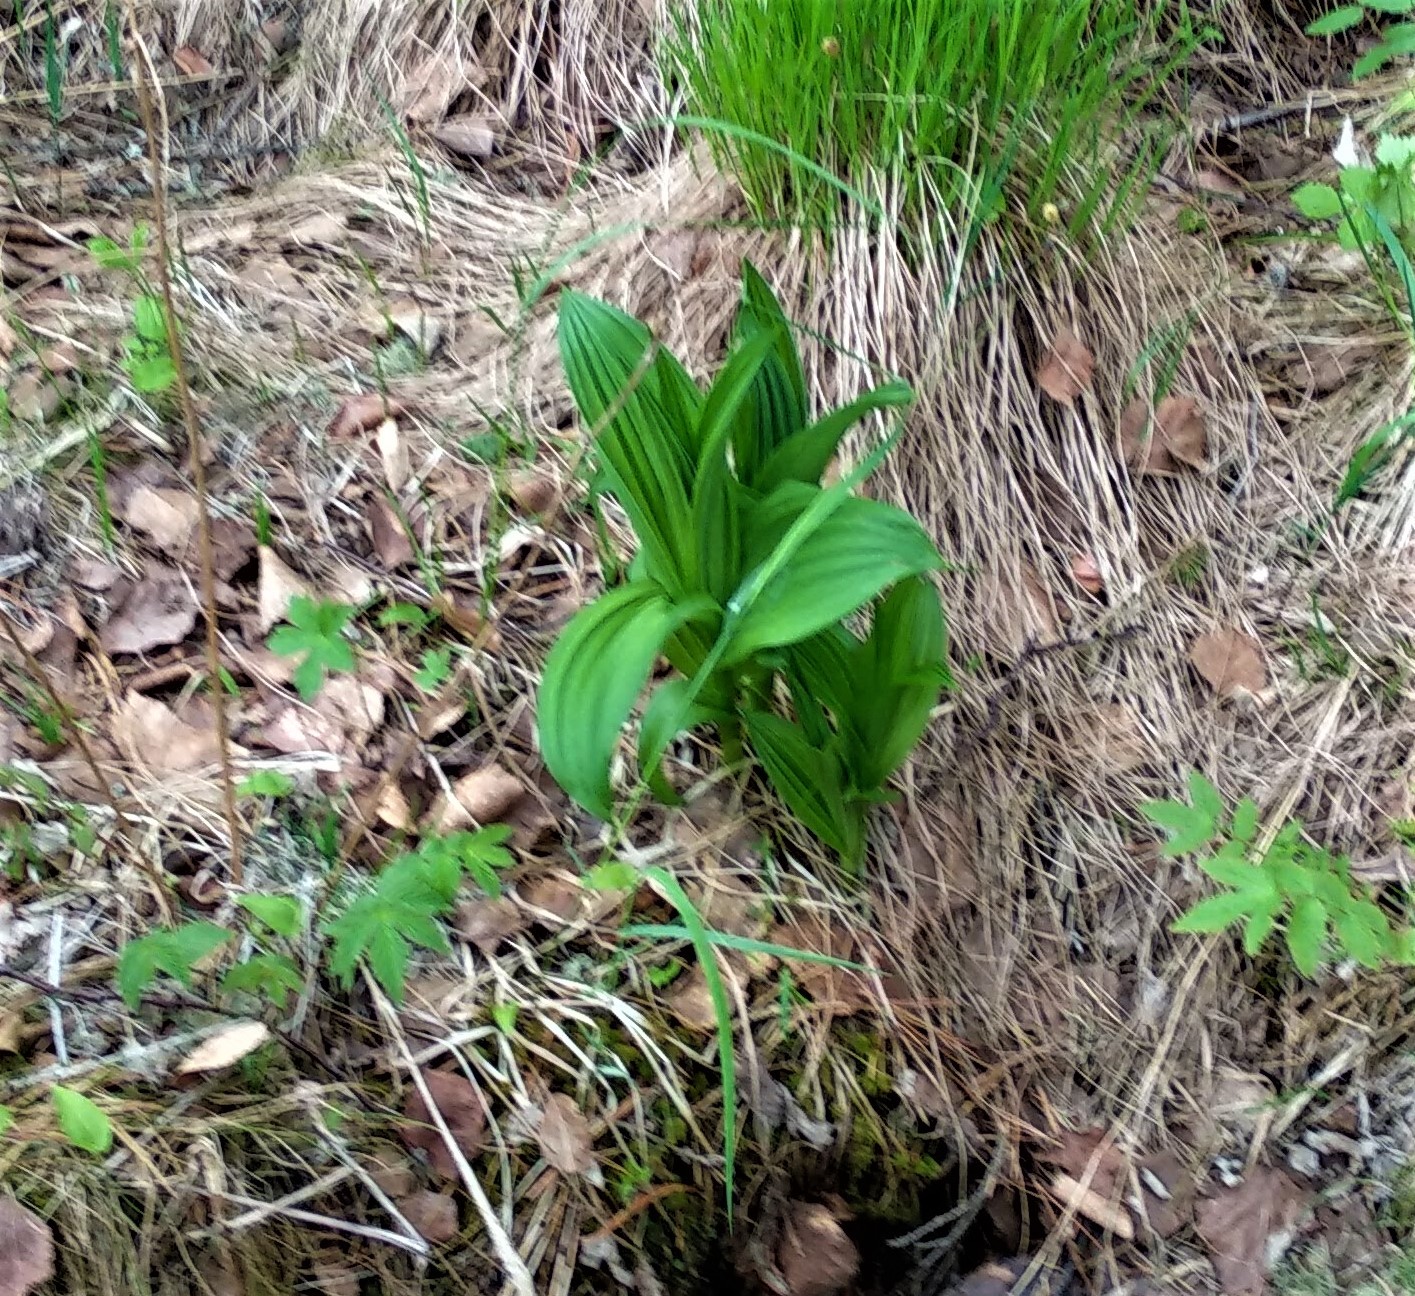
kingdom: Plantae
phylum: Tracheophyta
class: Liliopsida
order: Liliales
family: Melanthiaceae
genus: Veratrum
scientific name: Veratrum lobelianum
